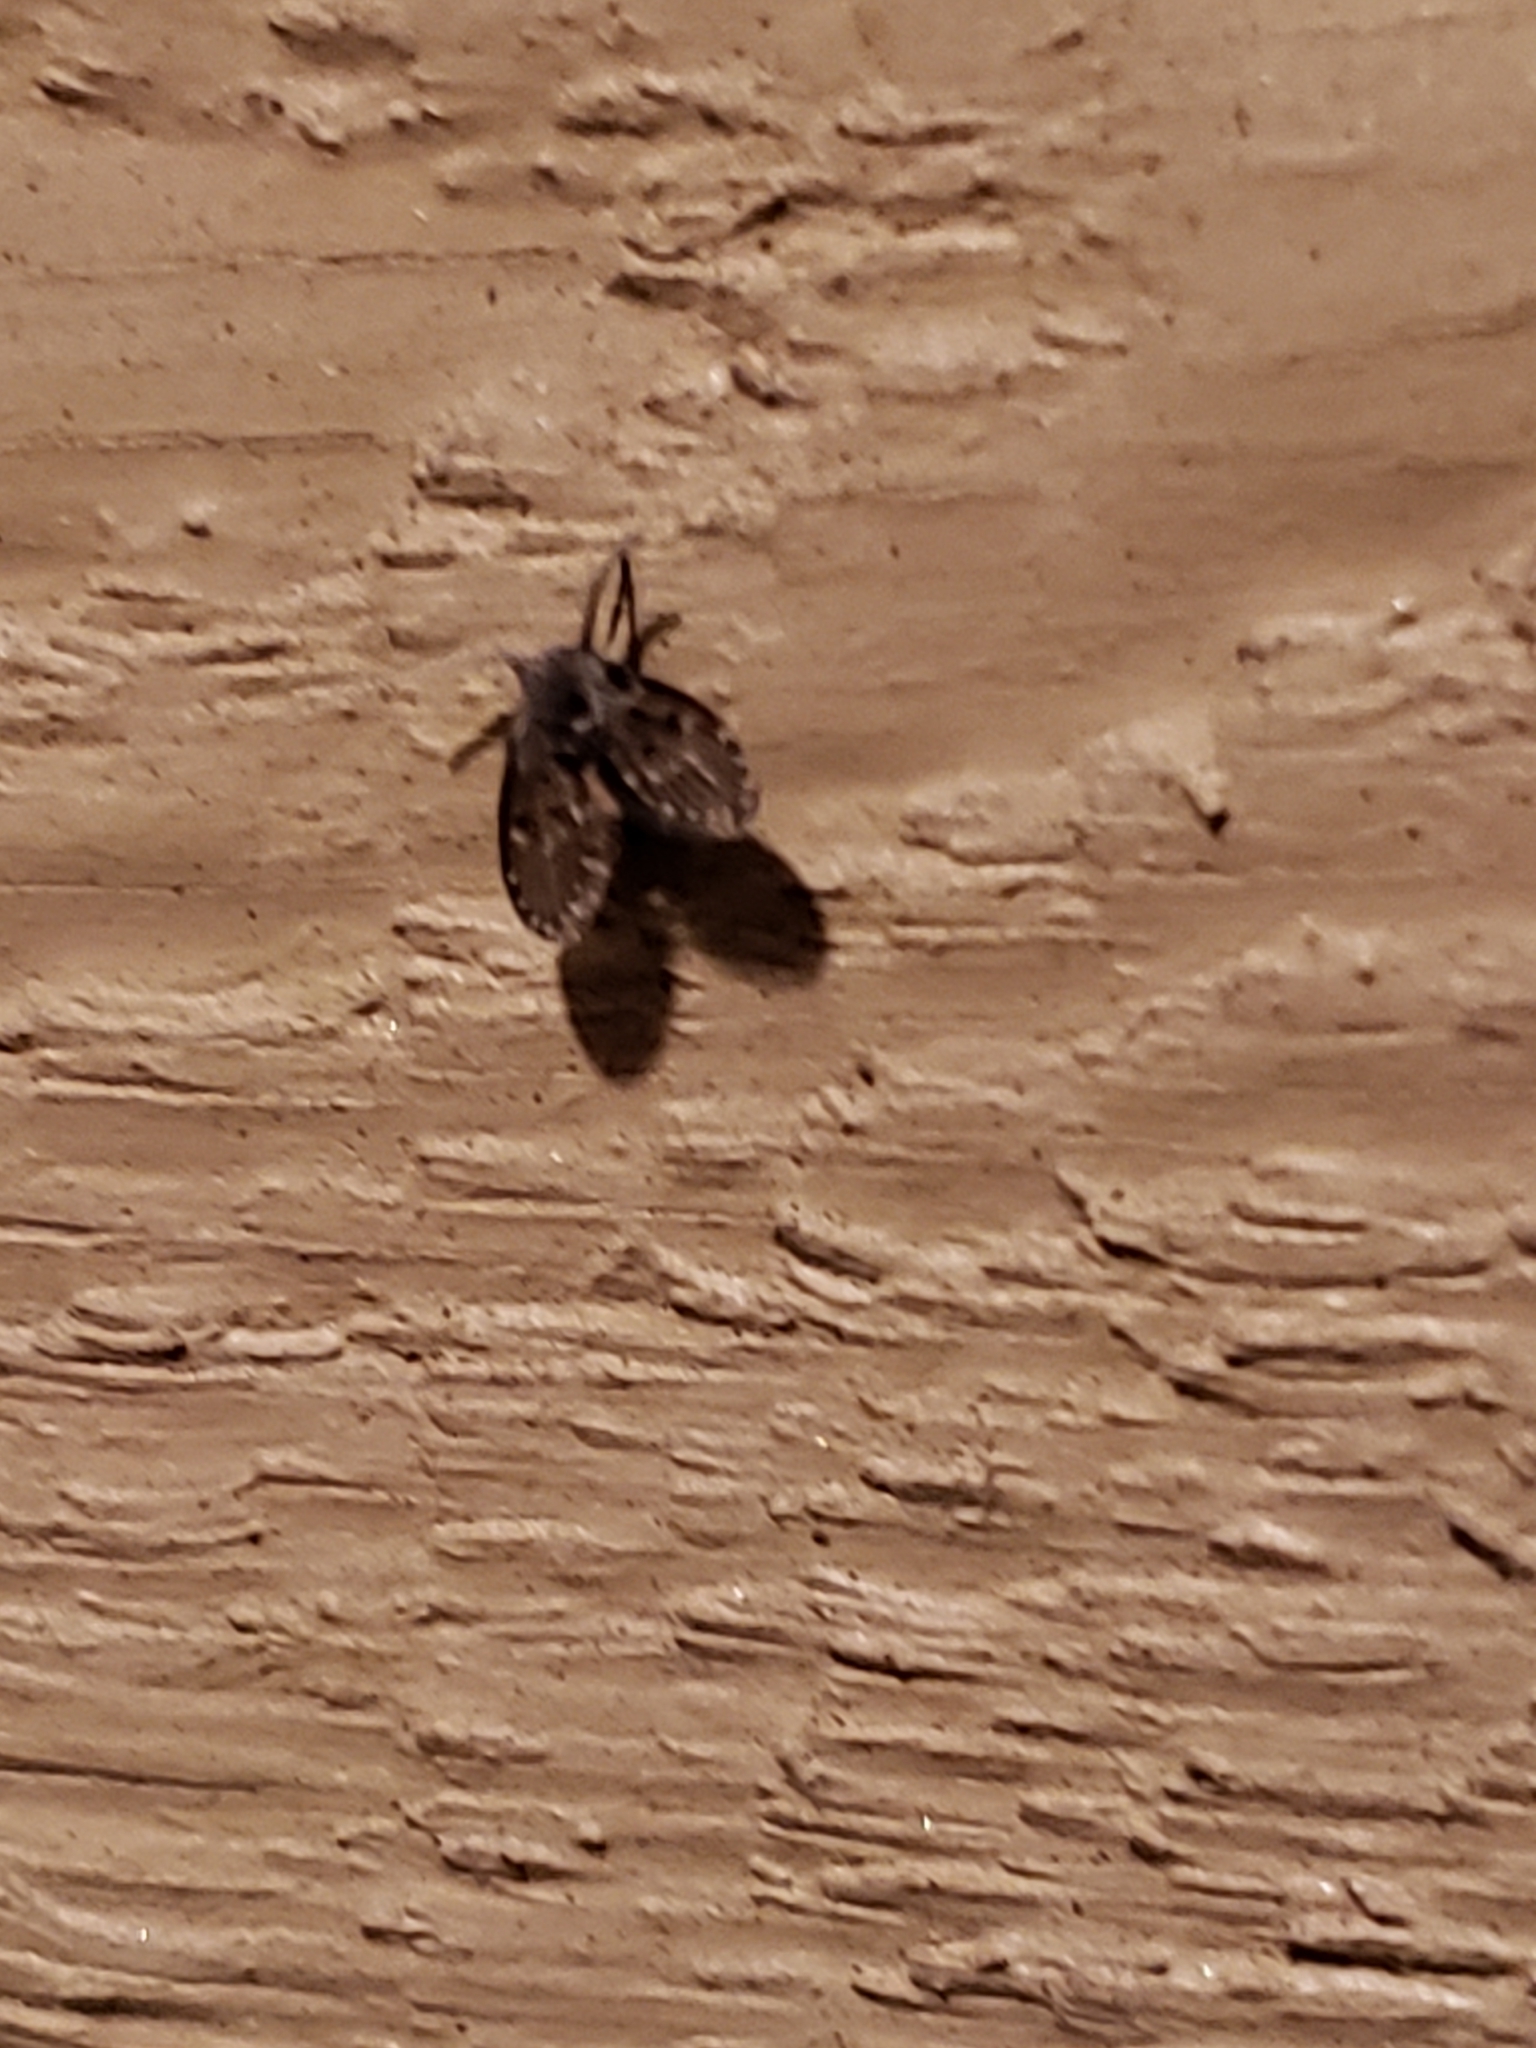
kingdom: Animalia
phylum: Arthropoda
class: Insecta
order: Diptera
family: Psychodidae
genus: Clogmia
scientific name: Clogmia albipunctatus
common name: White-spotted moth fly
